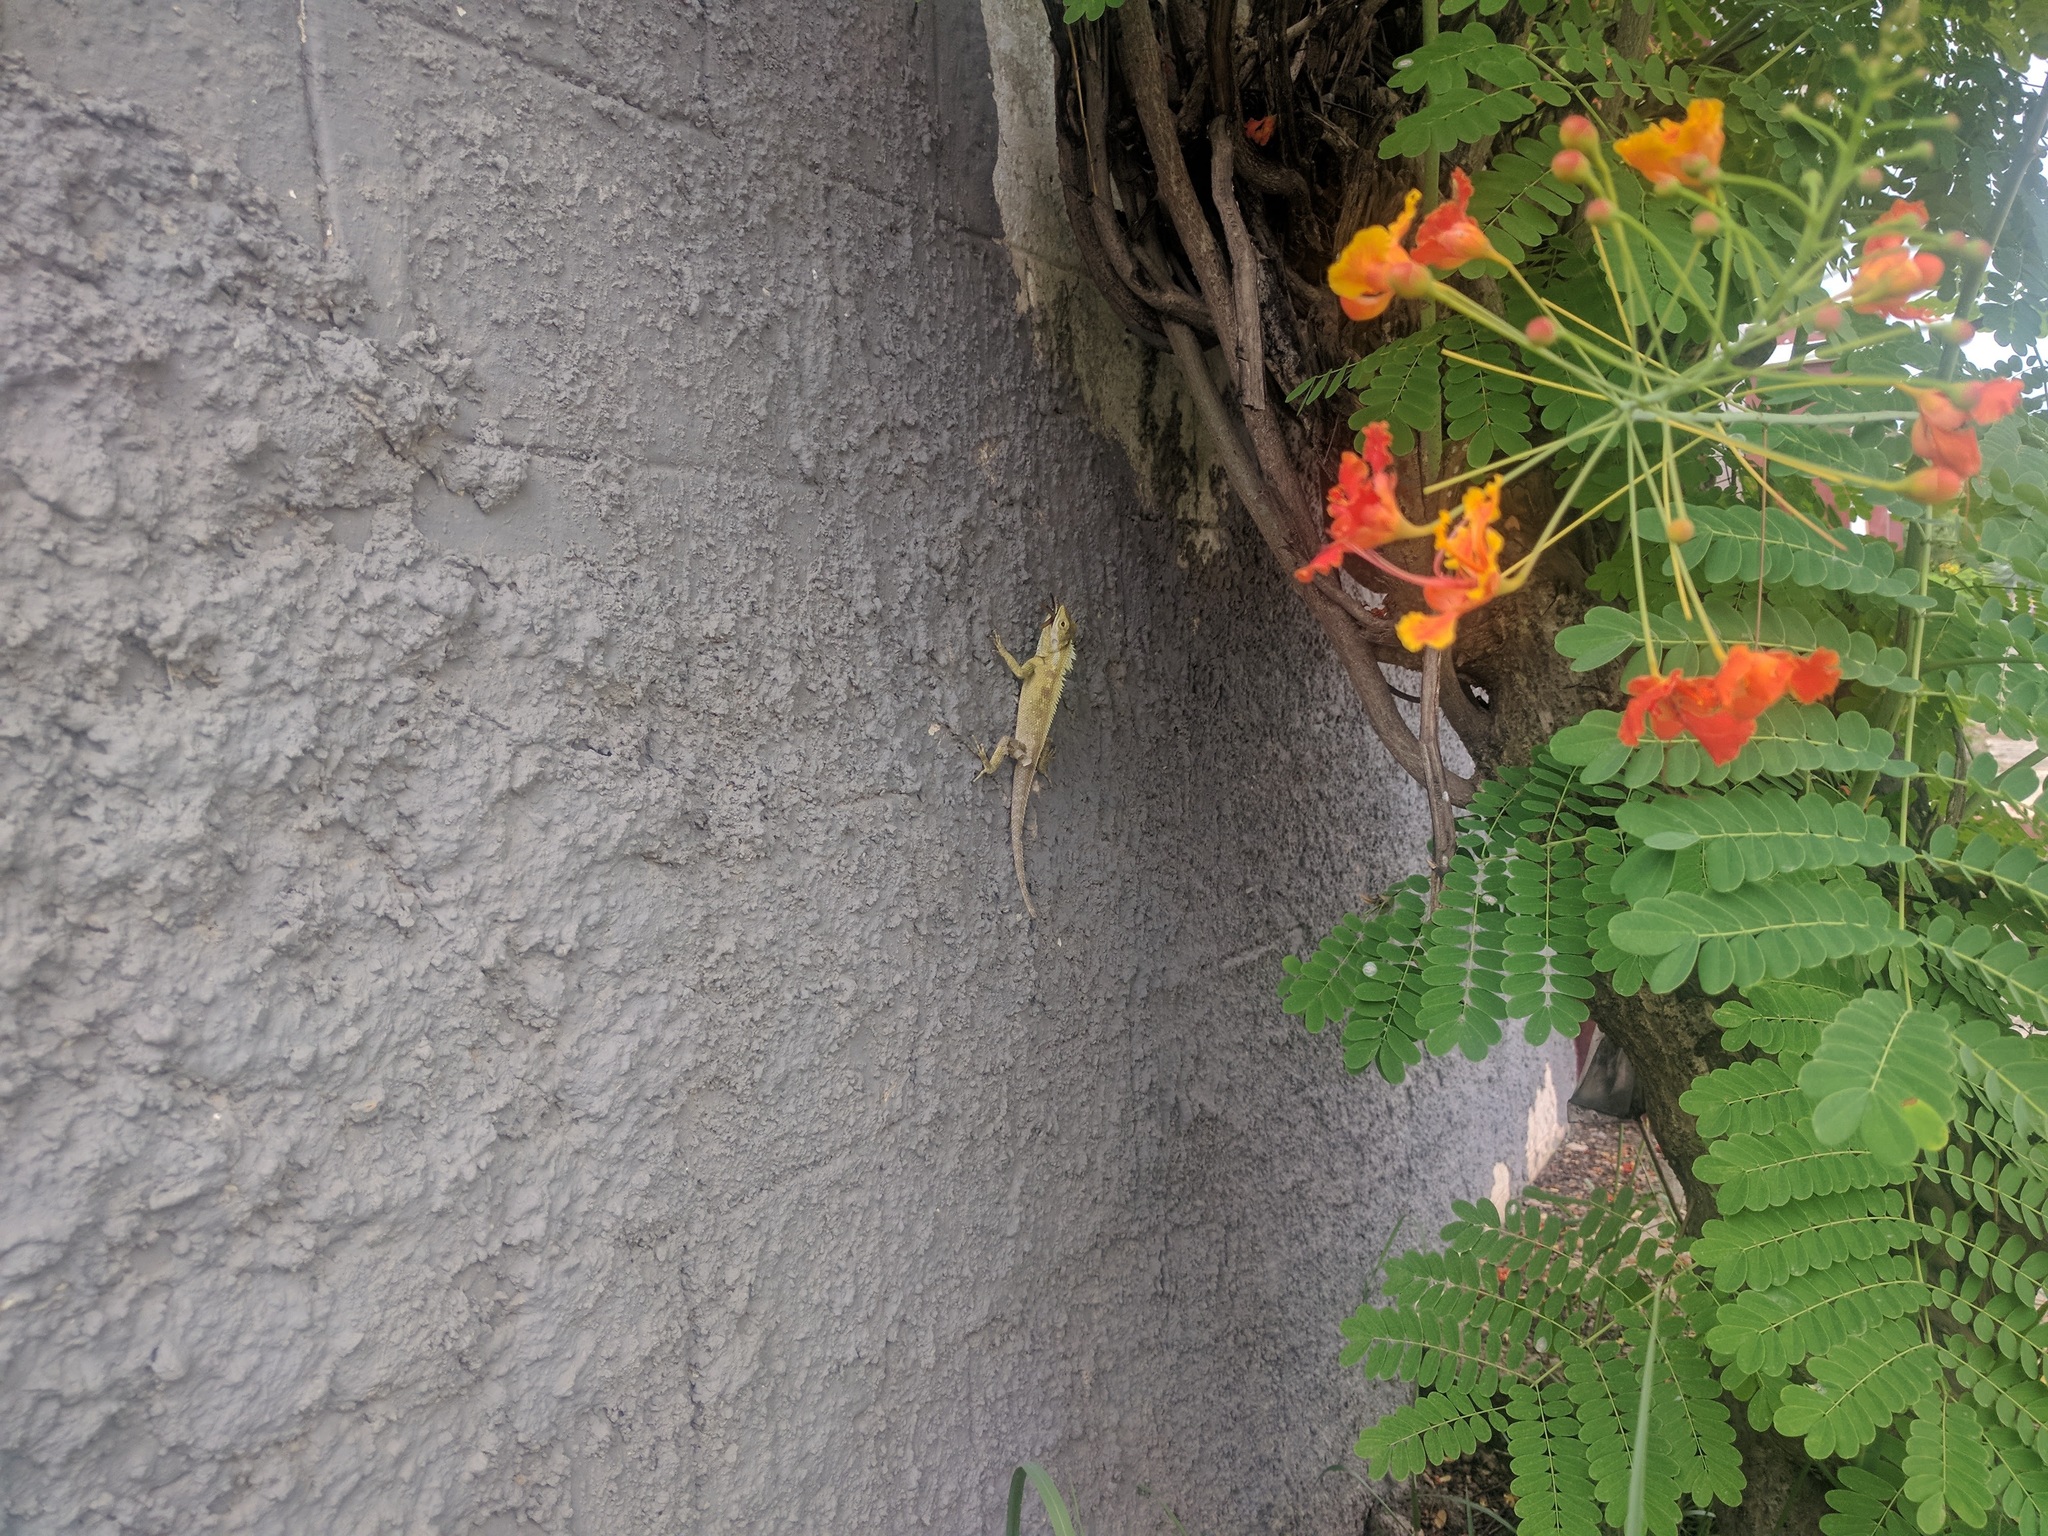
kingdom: Animalia
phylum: Chordata
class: Squamata
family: Agamidae
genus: Calotes
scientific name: Calotes goetzi
